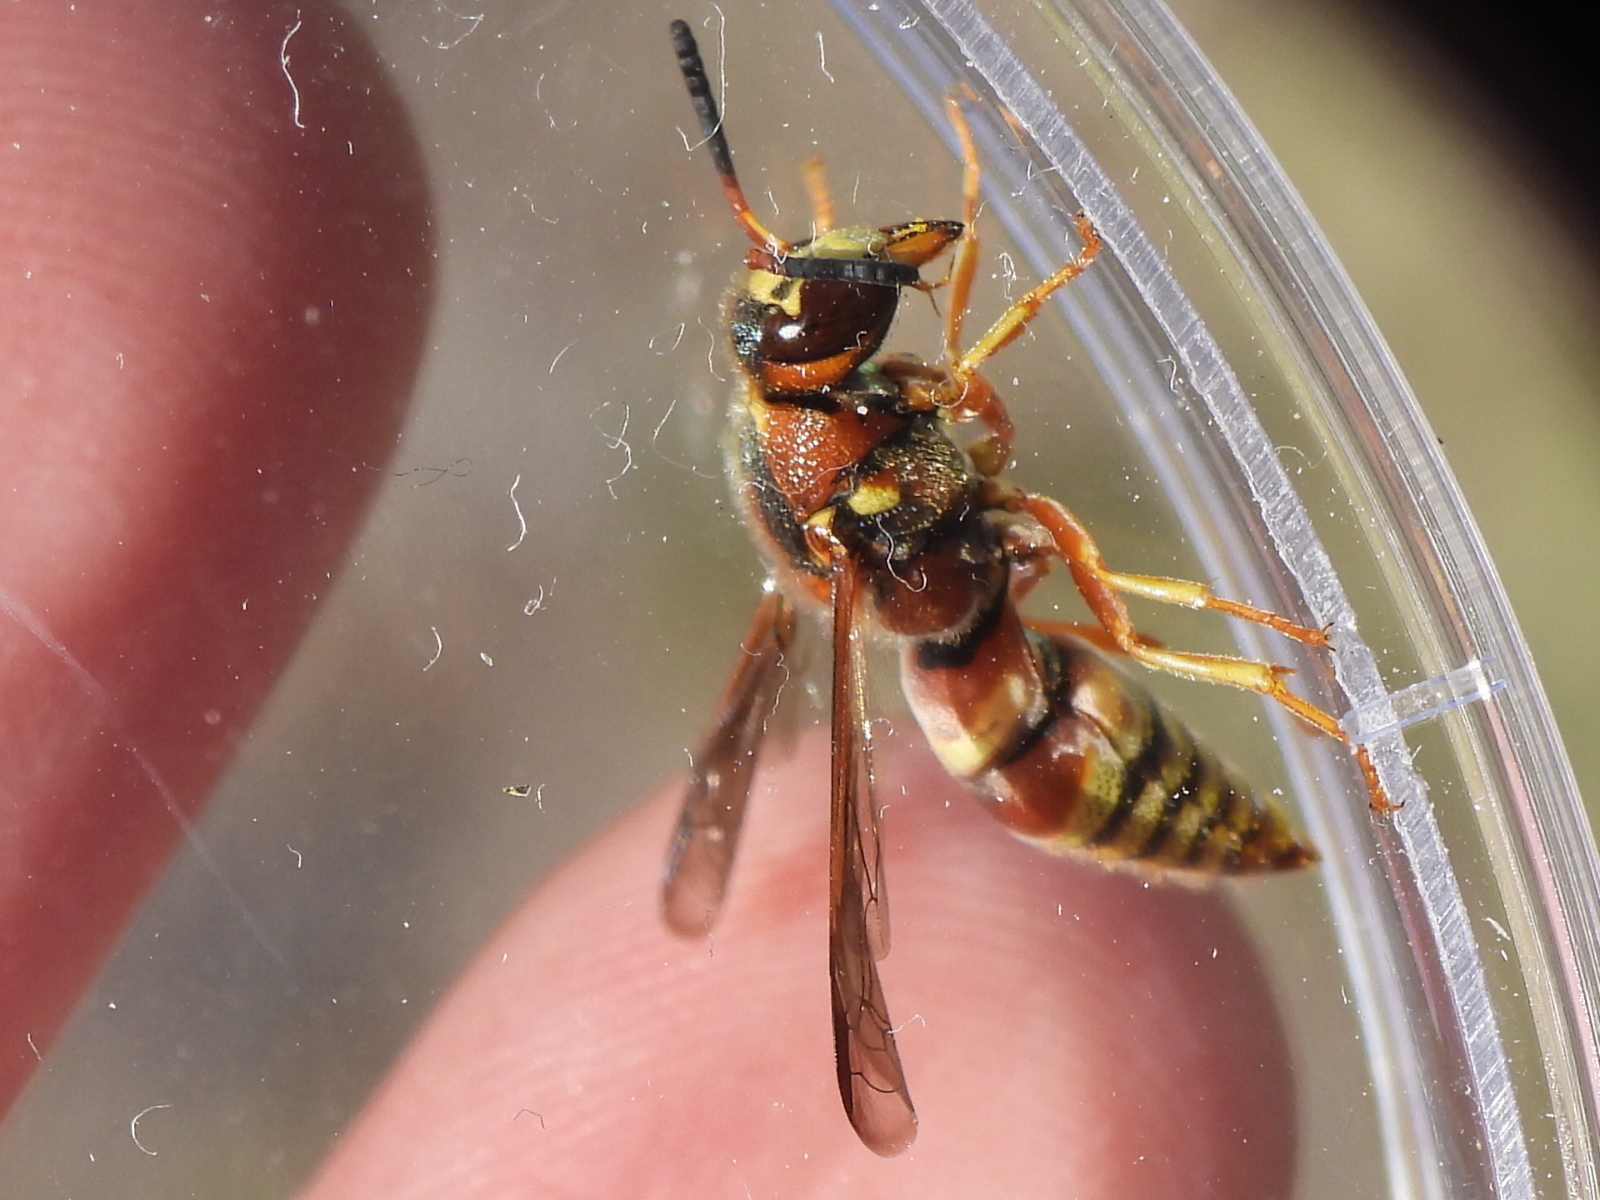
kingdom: Animalia
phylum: Arthropoda
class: Insecta
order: Hymenoptera
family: Eumenidae
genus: Euodynerus
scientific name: Euodynerus pratensis
